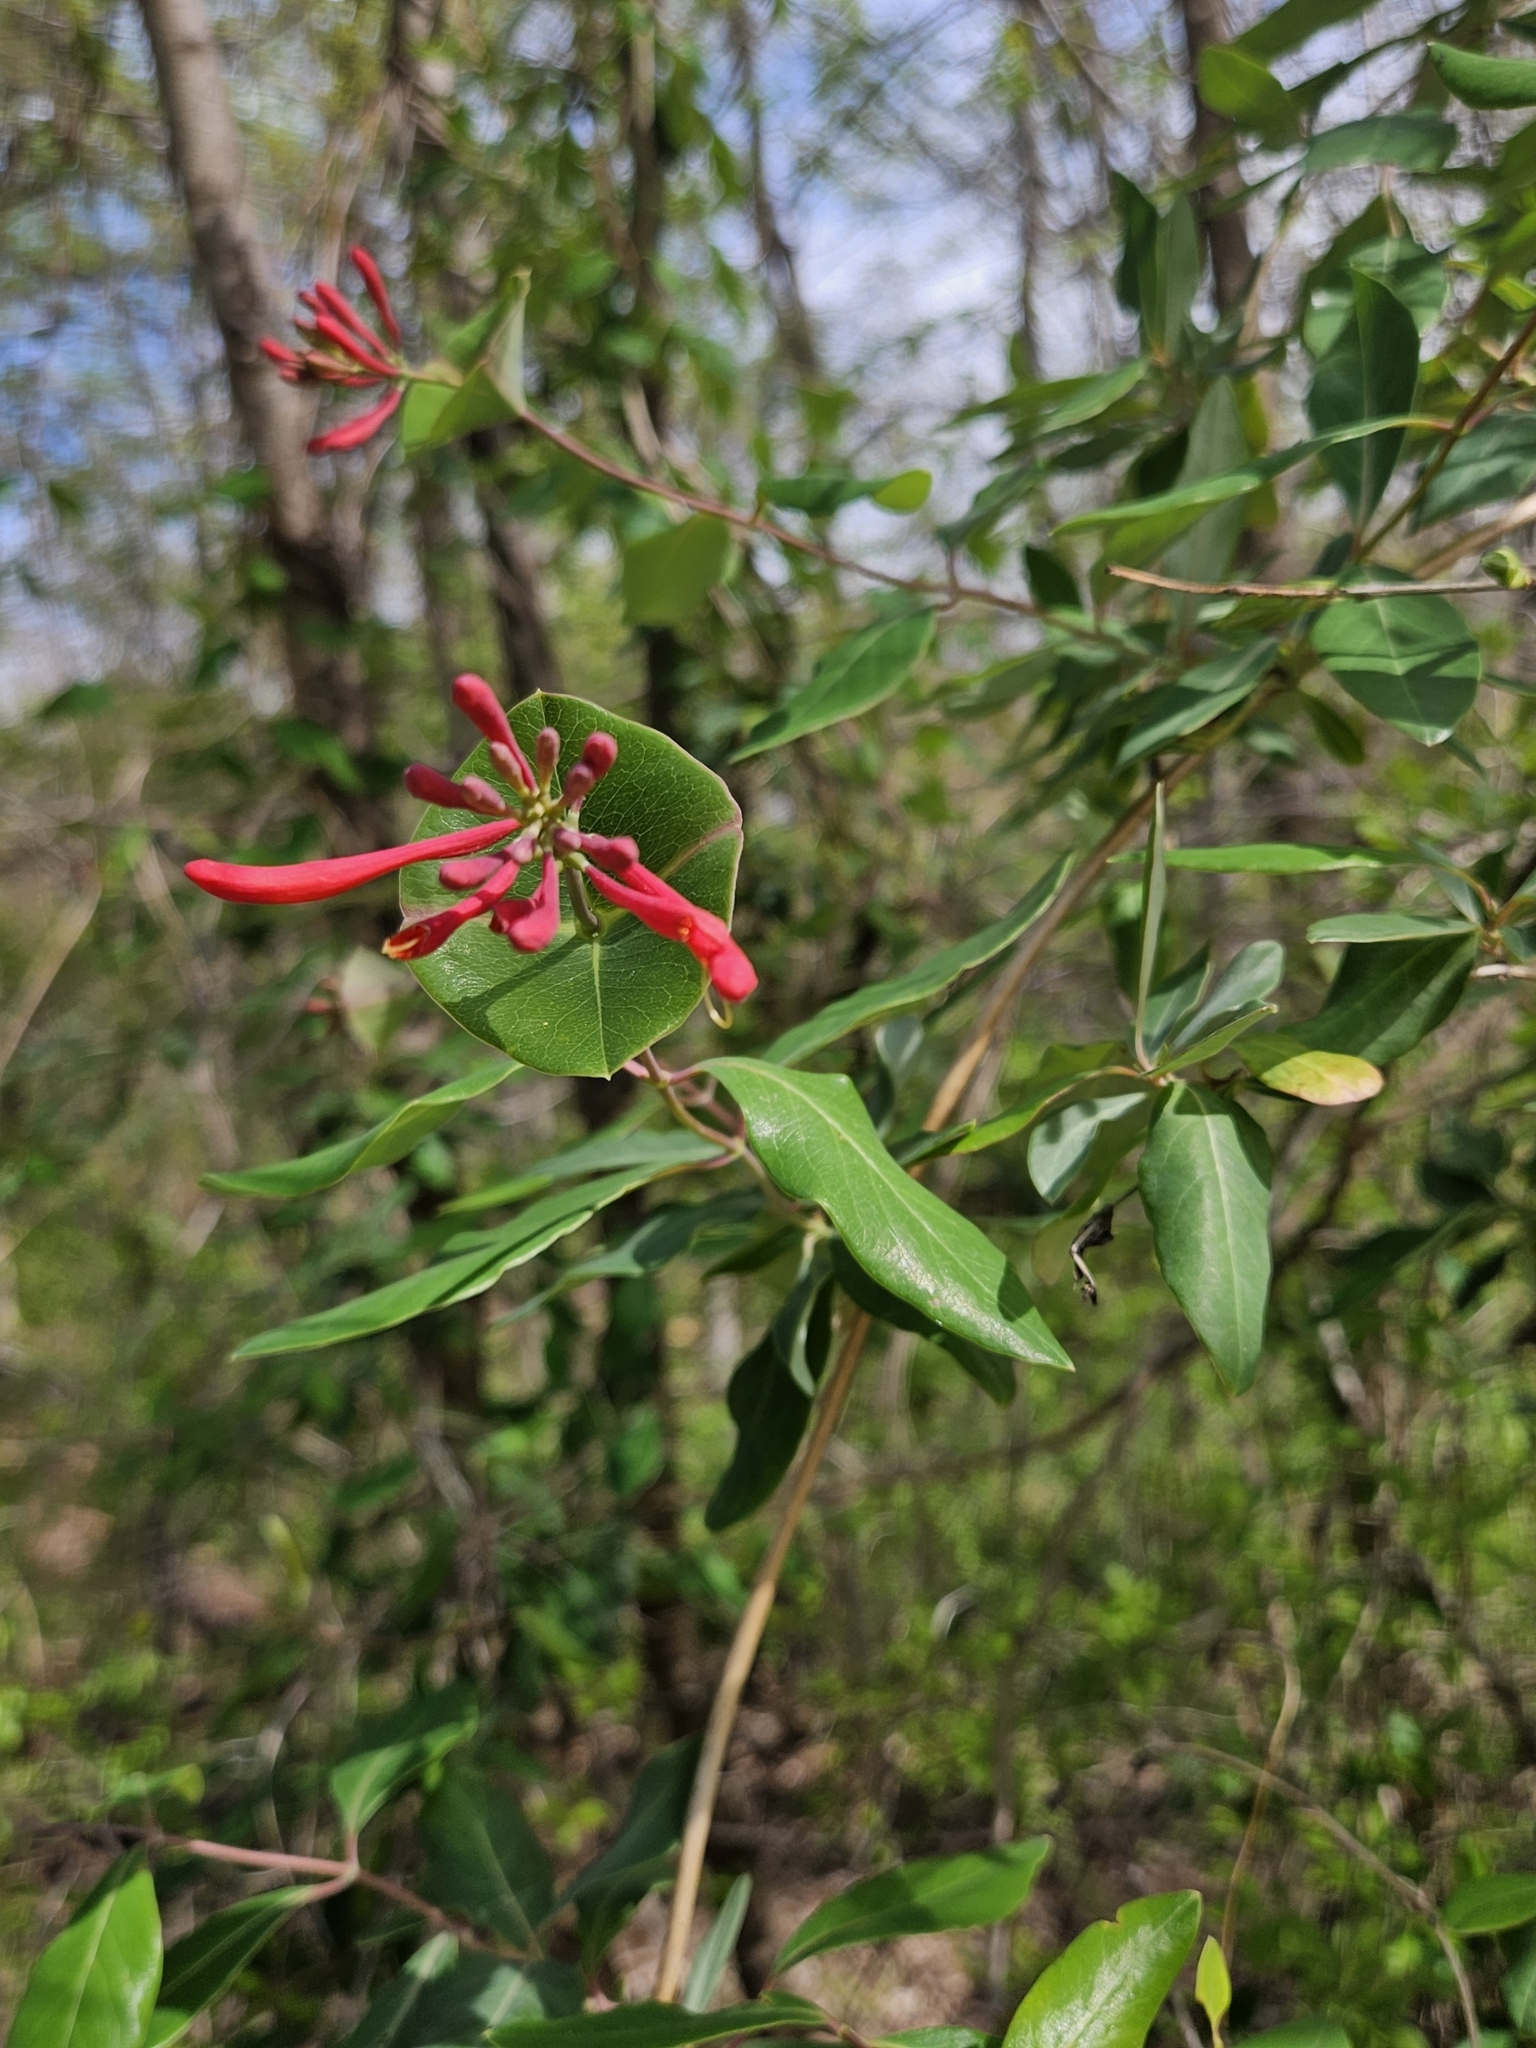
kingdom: Plantae
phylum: Tracheophyta
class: Magnoliopsida
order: Dipsacales
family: Caprifoliaceae
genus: Lonicera
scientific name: Lonicera sempervirens
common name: Coral honeysuckle
